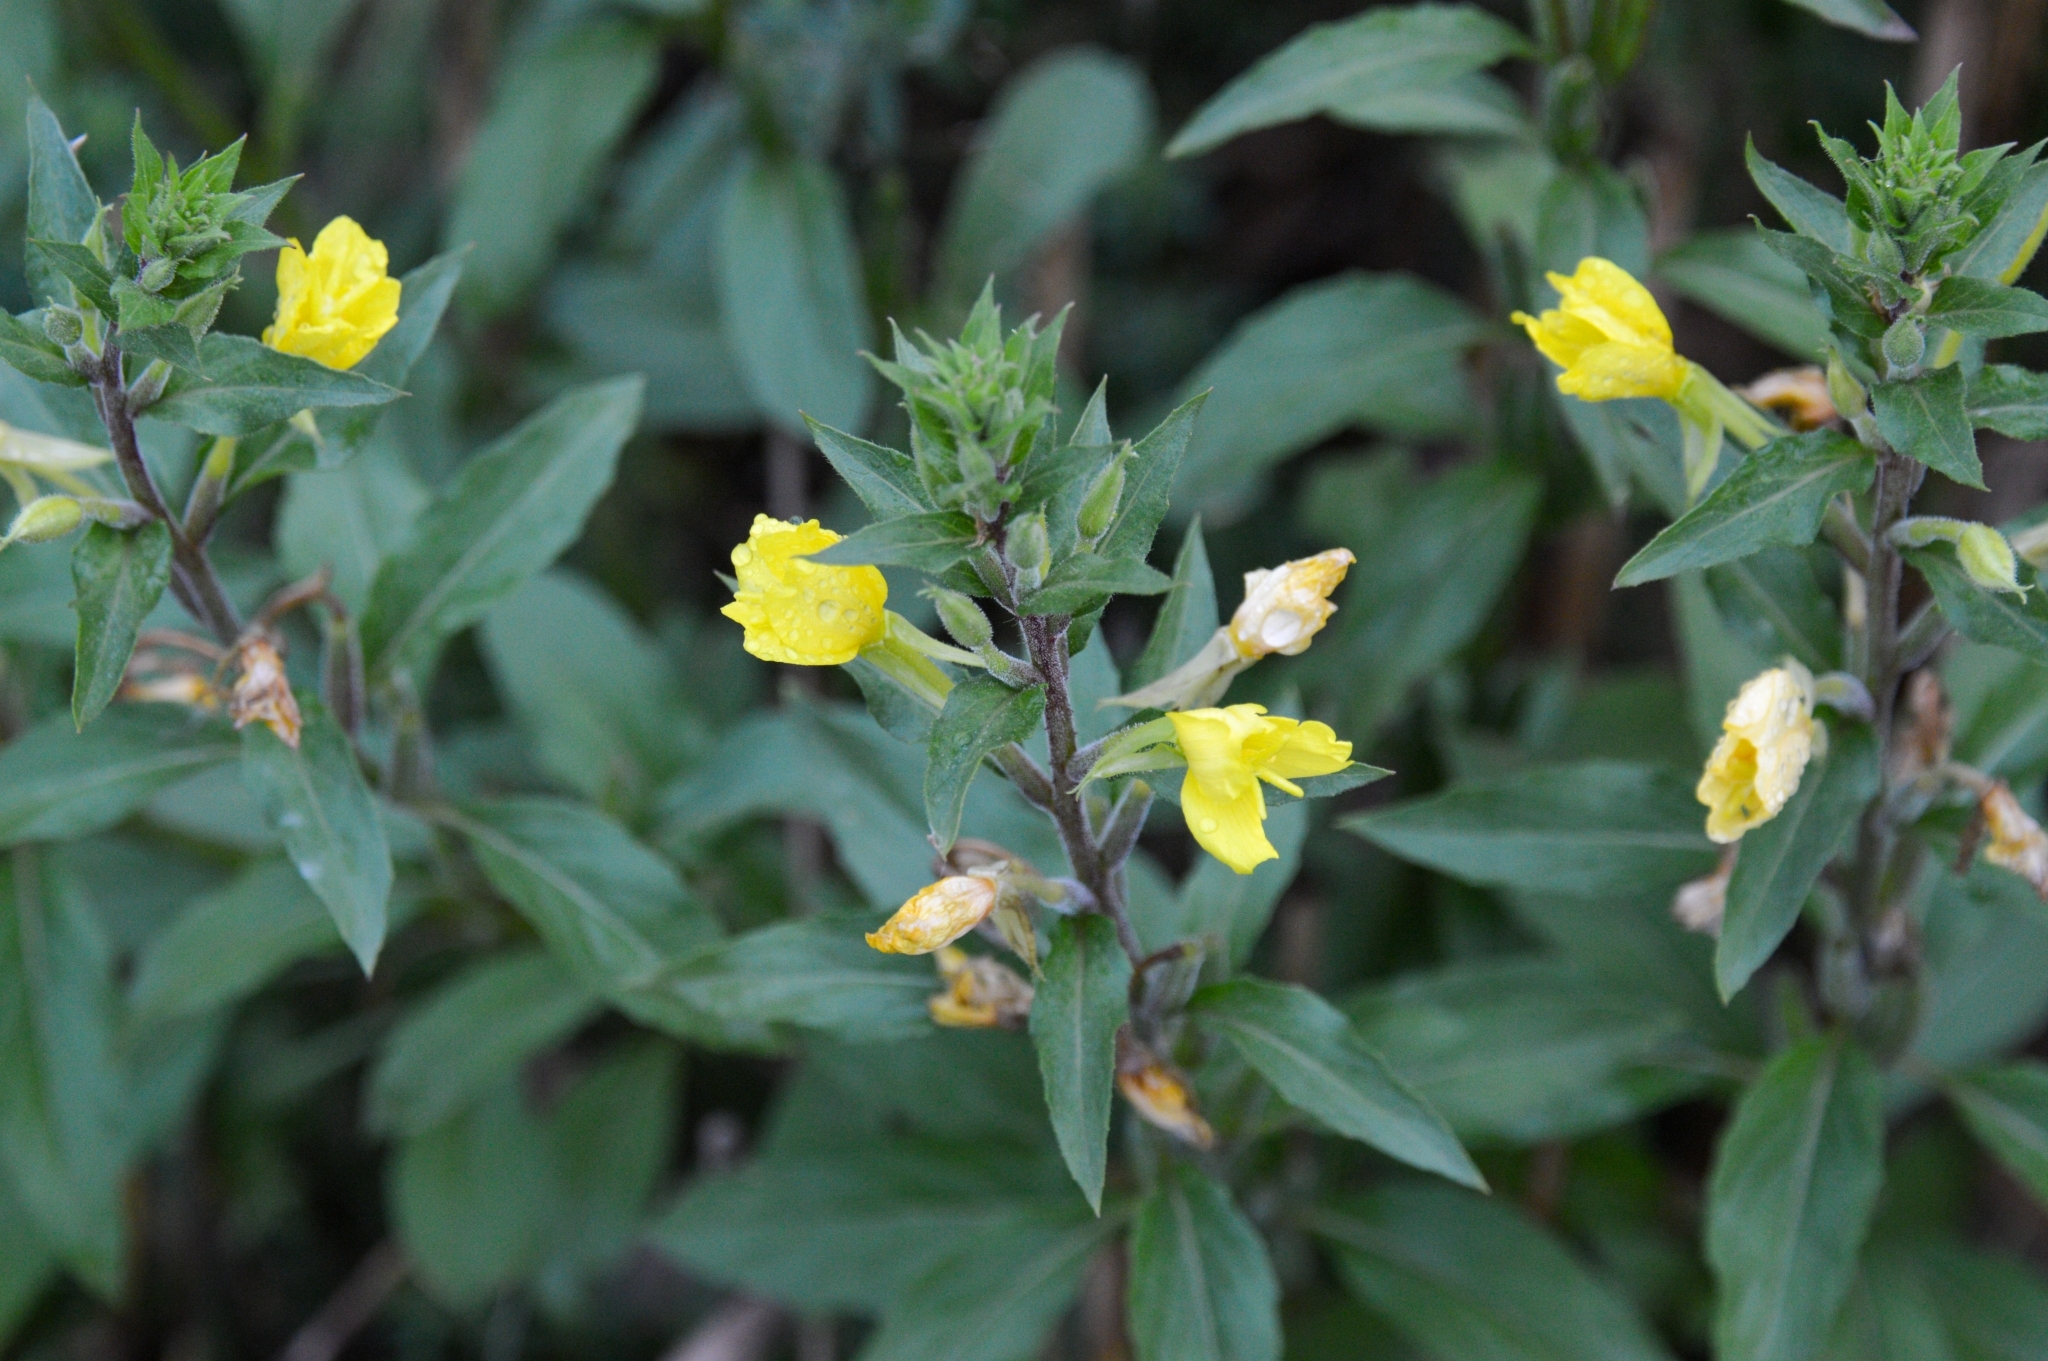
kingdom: Plantae
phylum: Tracheophyta
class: Magnoliopsida
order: Myrtales
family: Onagraceae
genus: Oenothera
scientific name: Oenothera rubricaulis
